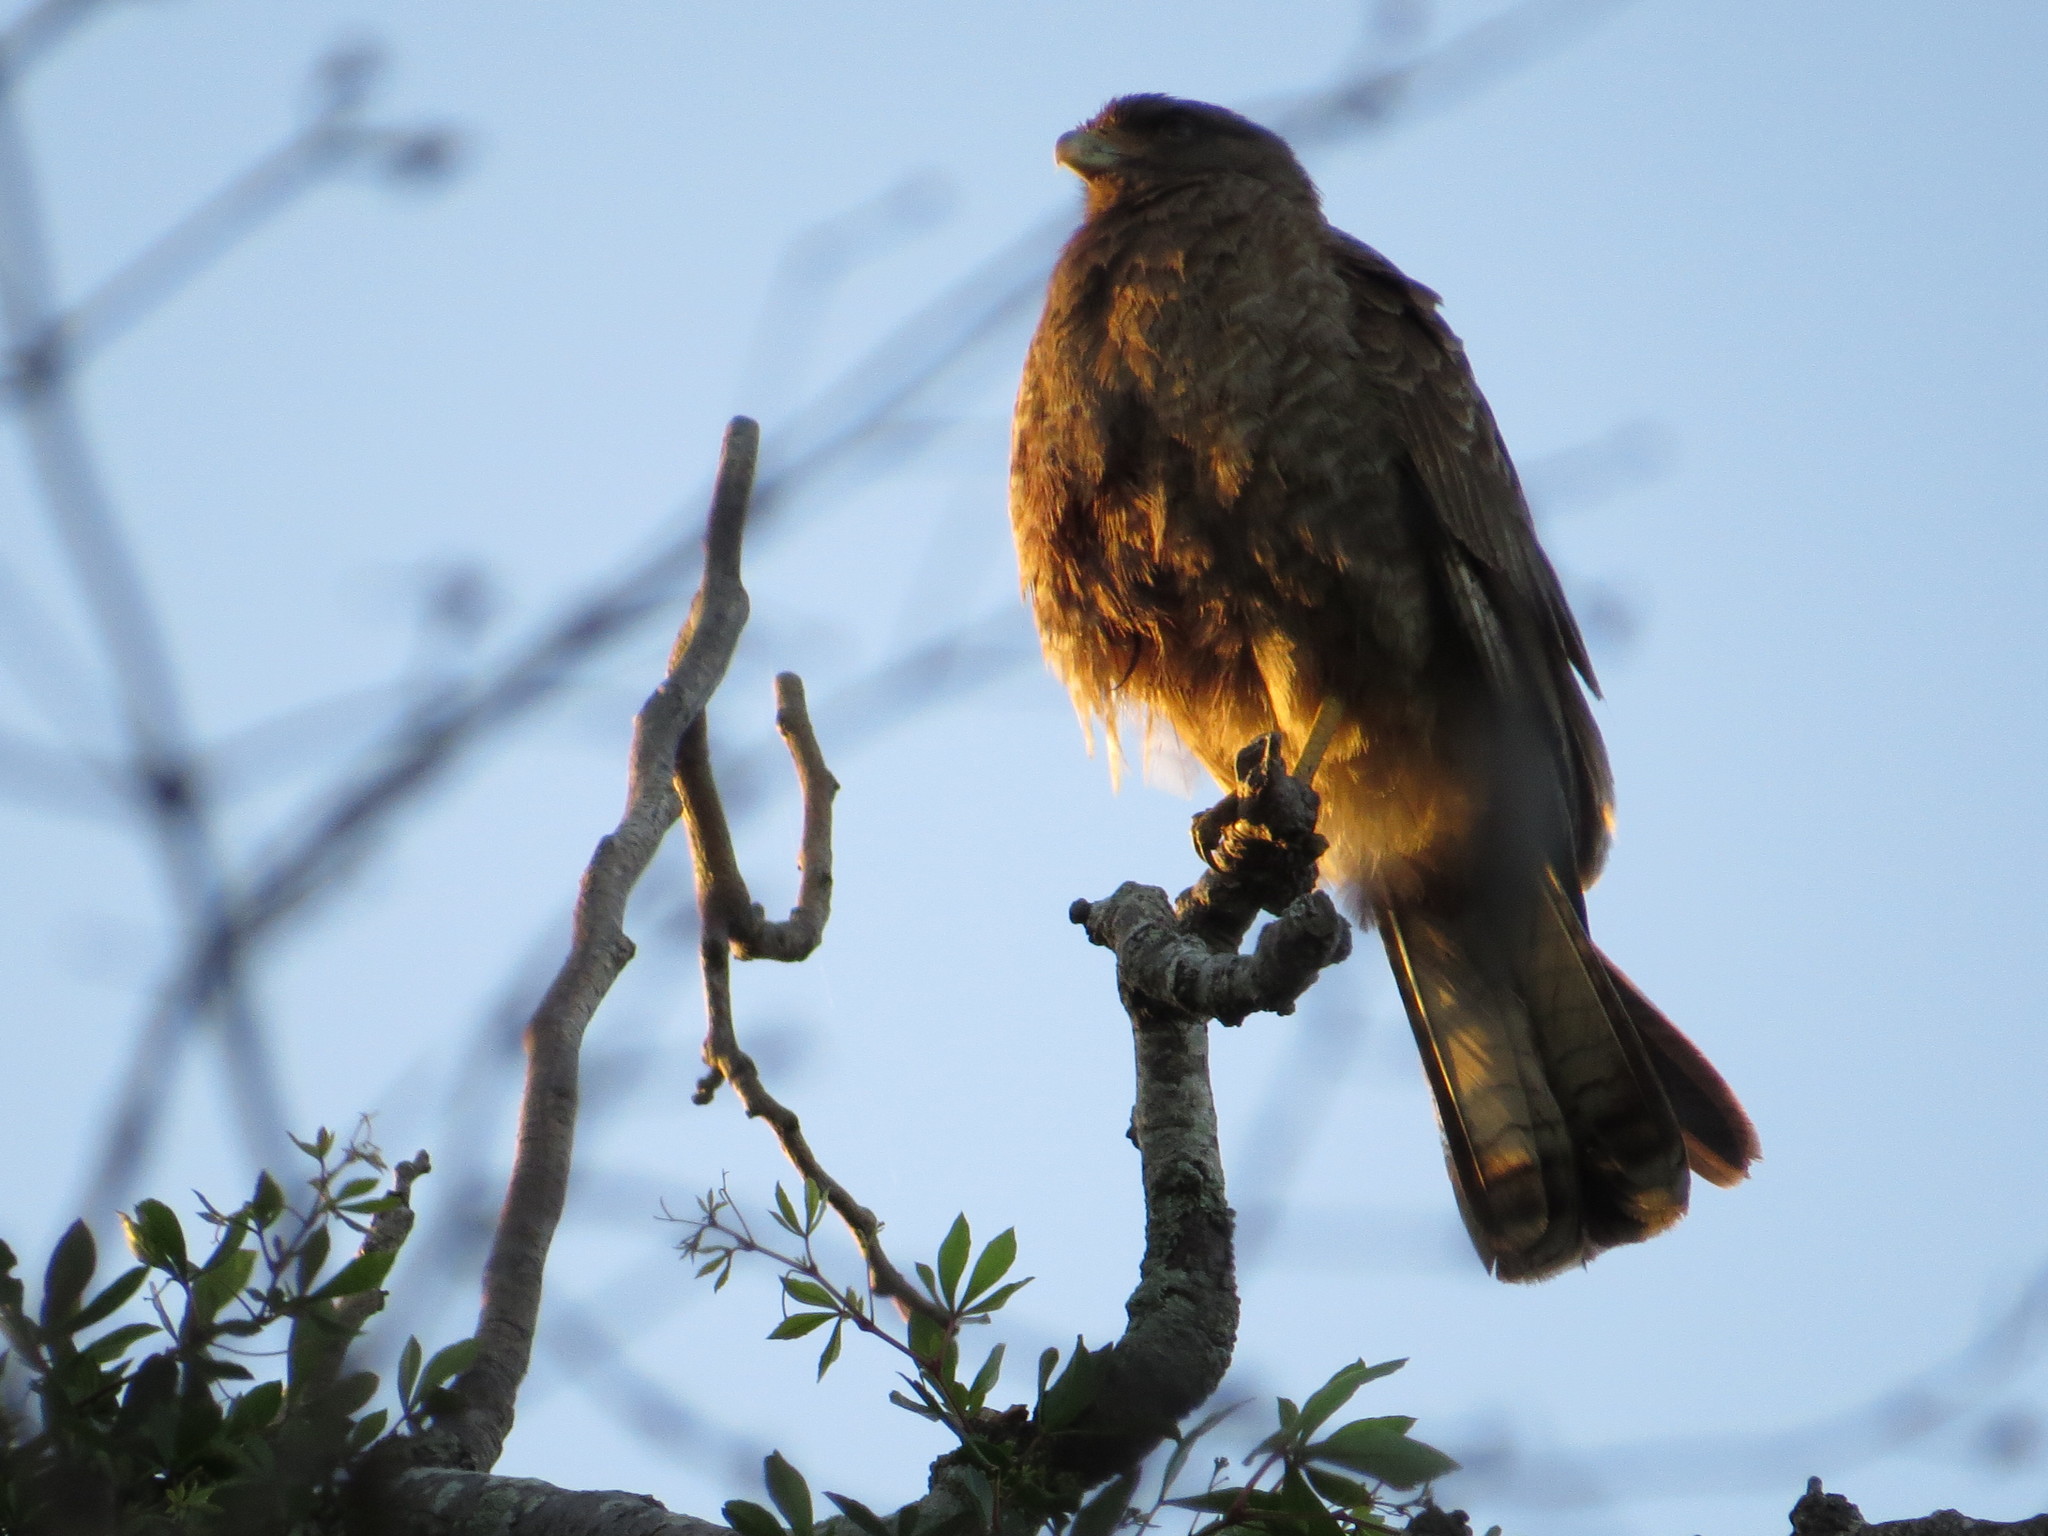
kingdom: Animalia
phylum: Chordata
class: Aves
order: Falconiformes
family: Falconidae
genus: Daptrius
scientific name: Daptrius
